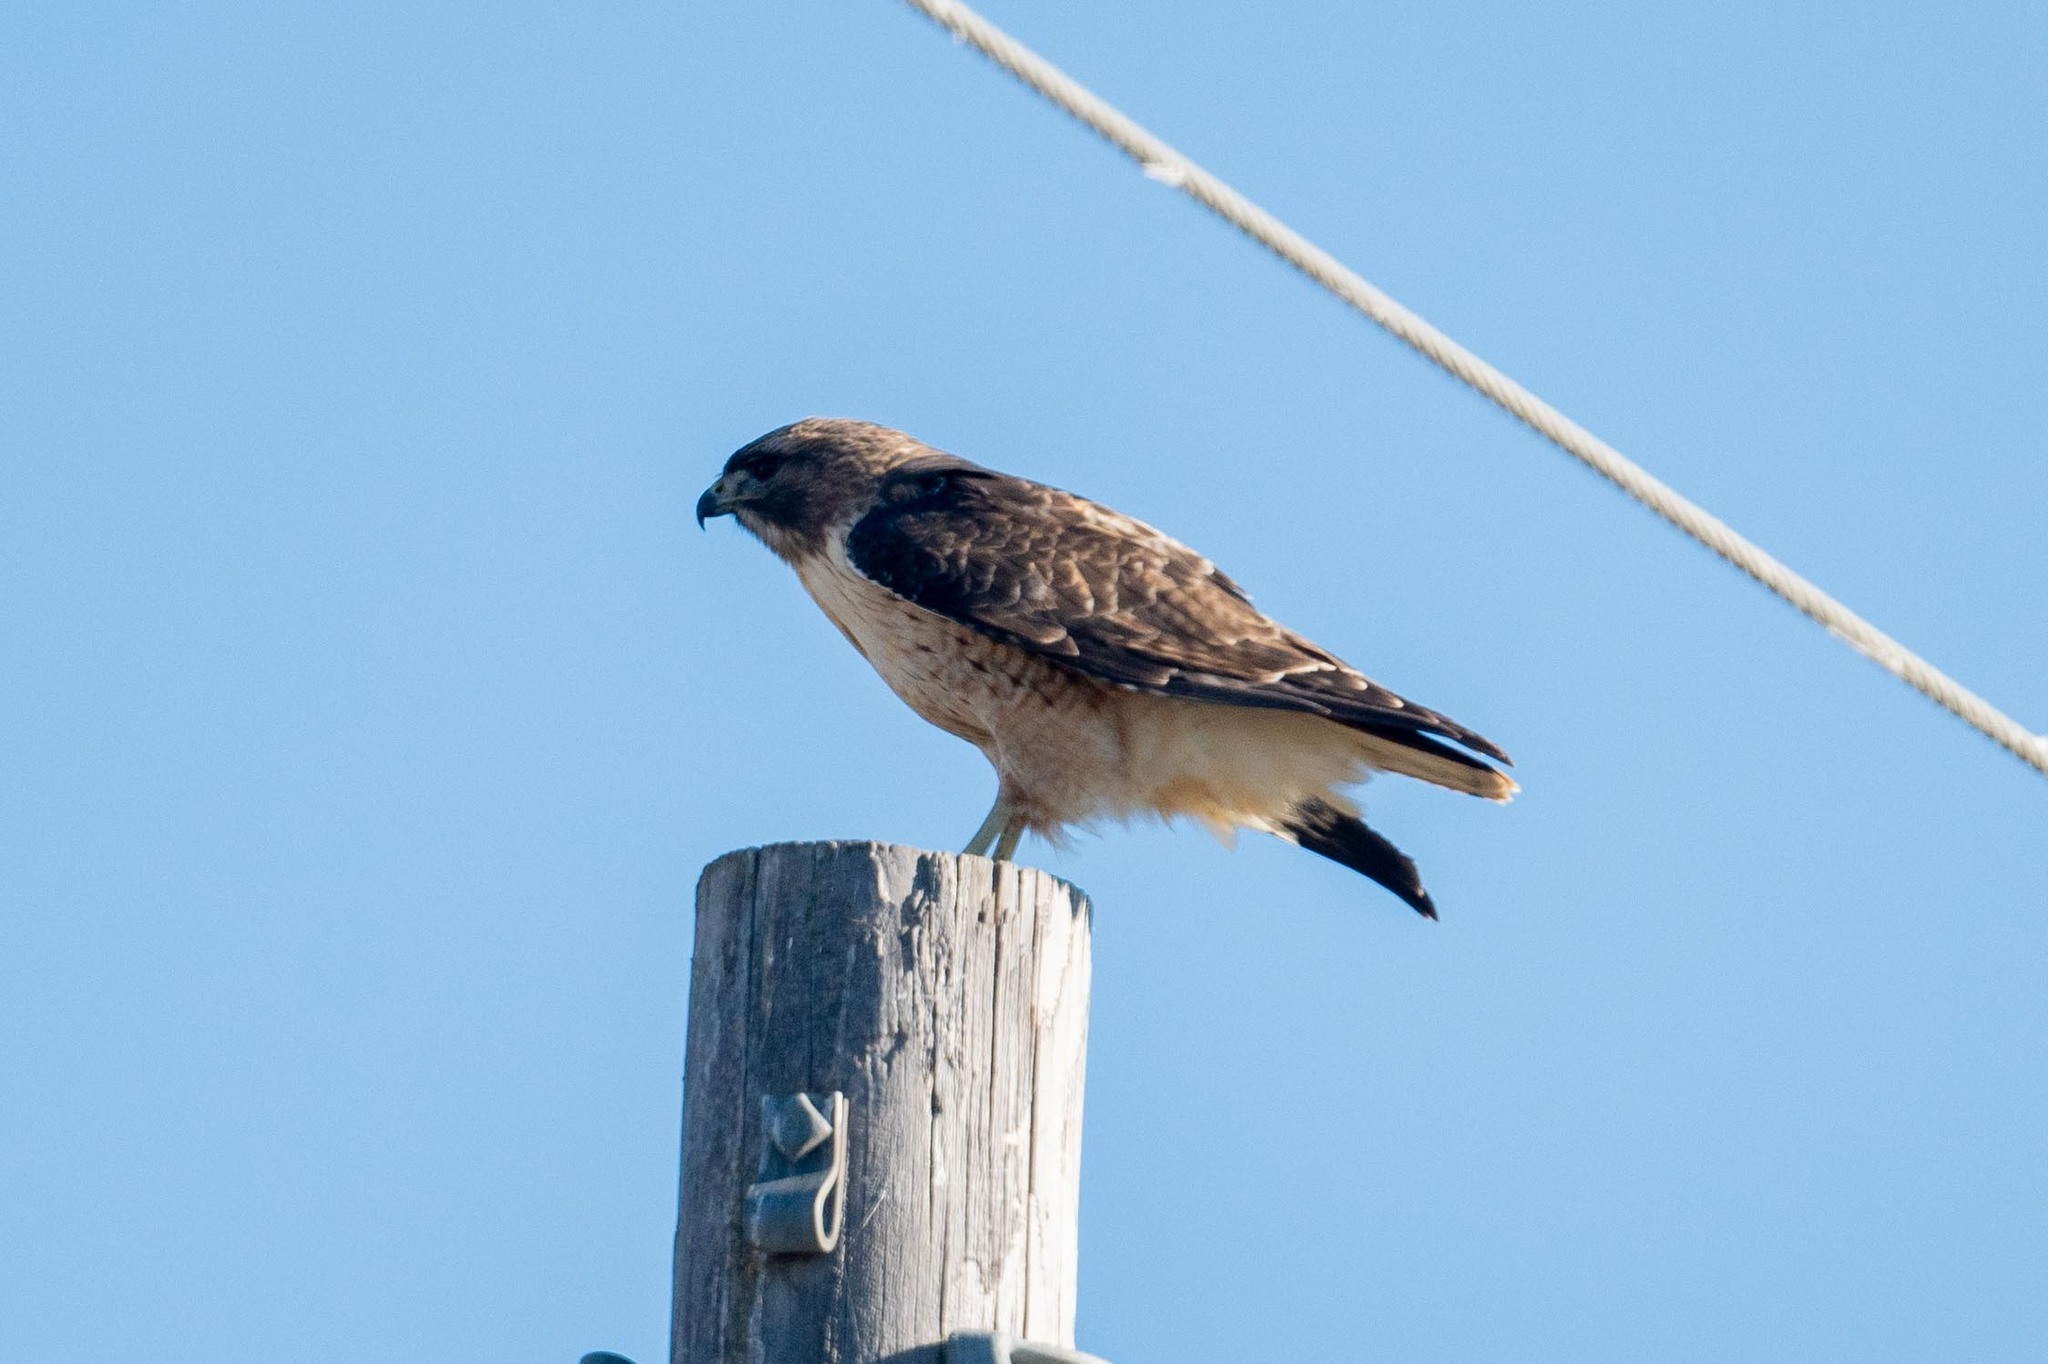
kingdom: Animalia
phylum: Chordata
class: Aves
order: Accipitriformes
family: Accipitridae
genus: Buteo
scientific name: Buteo jamaicensis
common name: Red-tailed hawk
